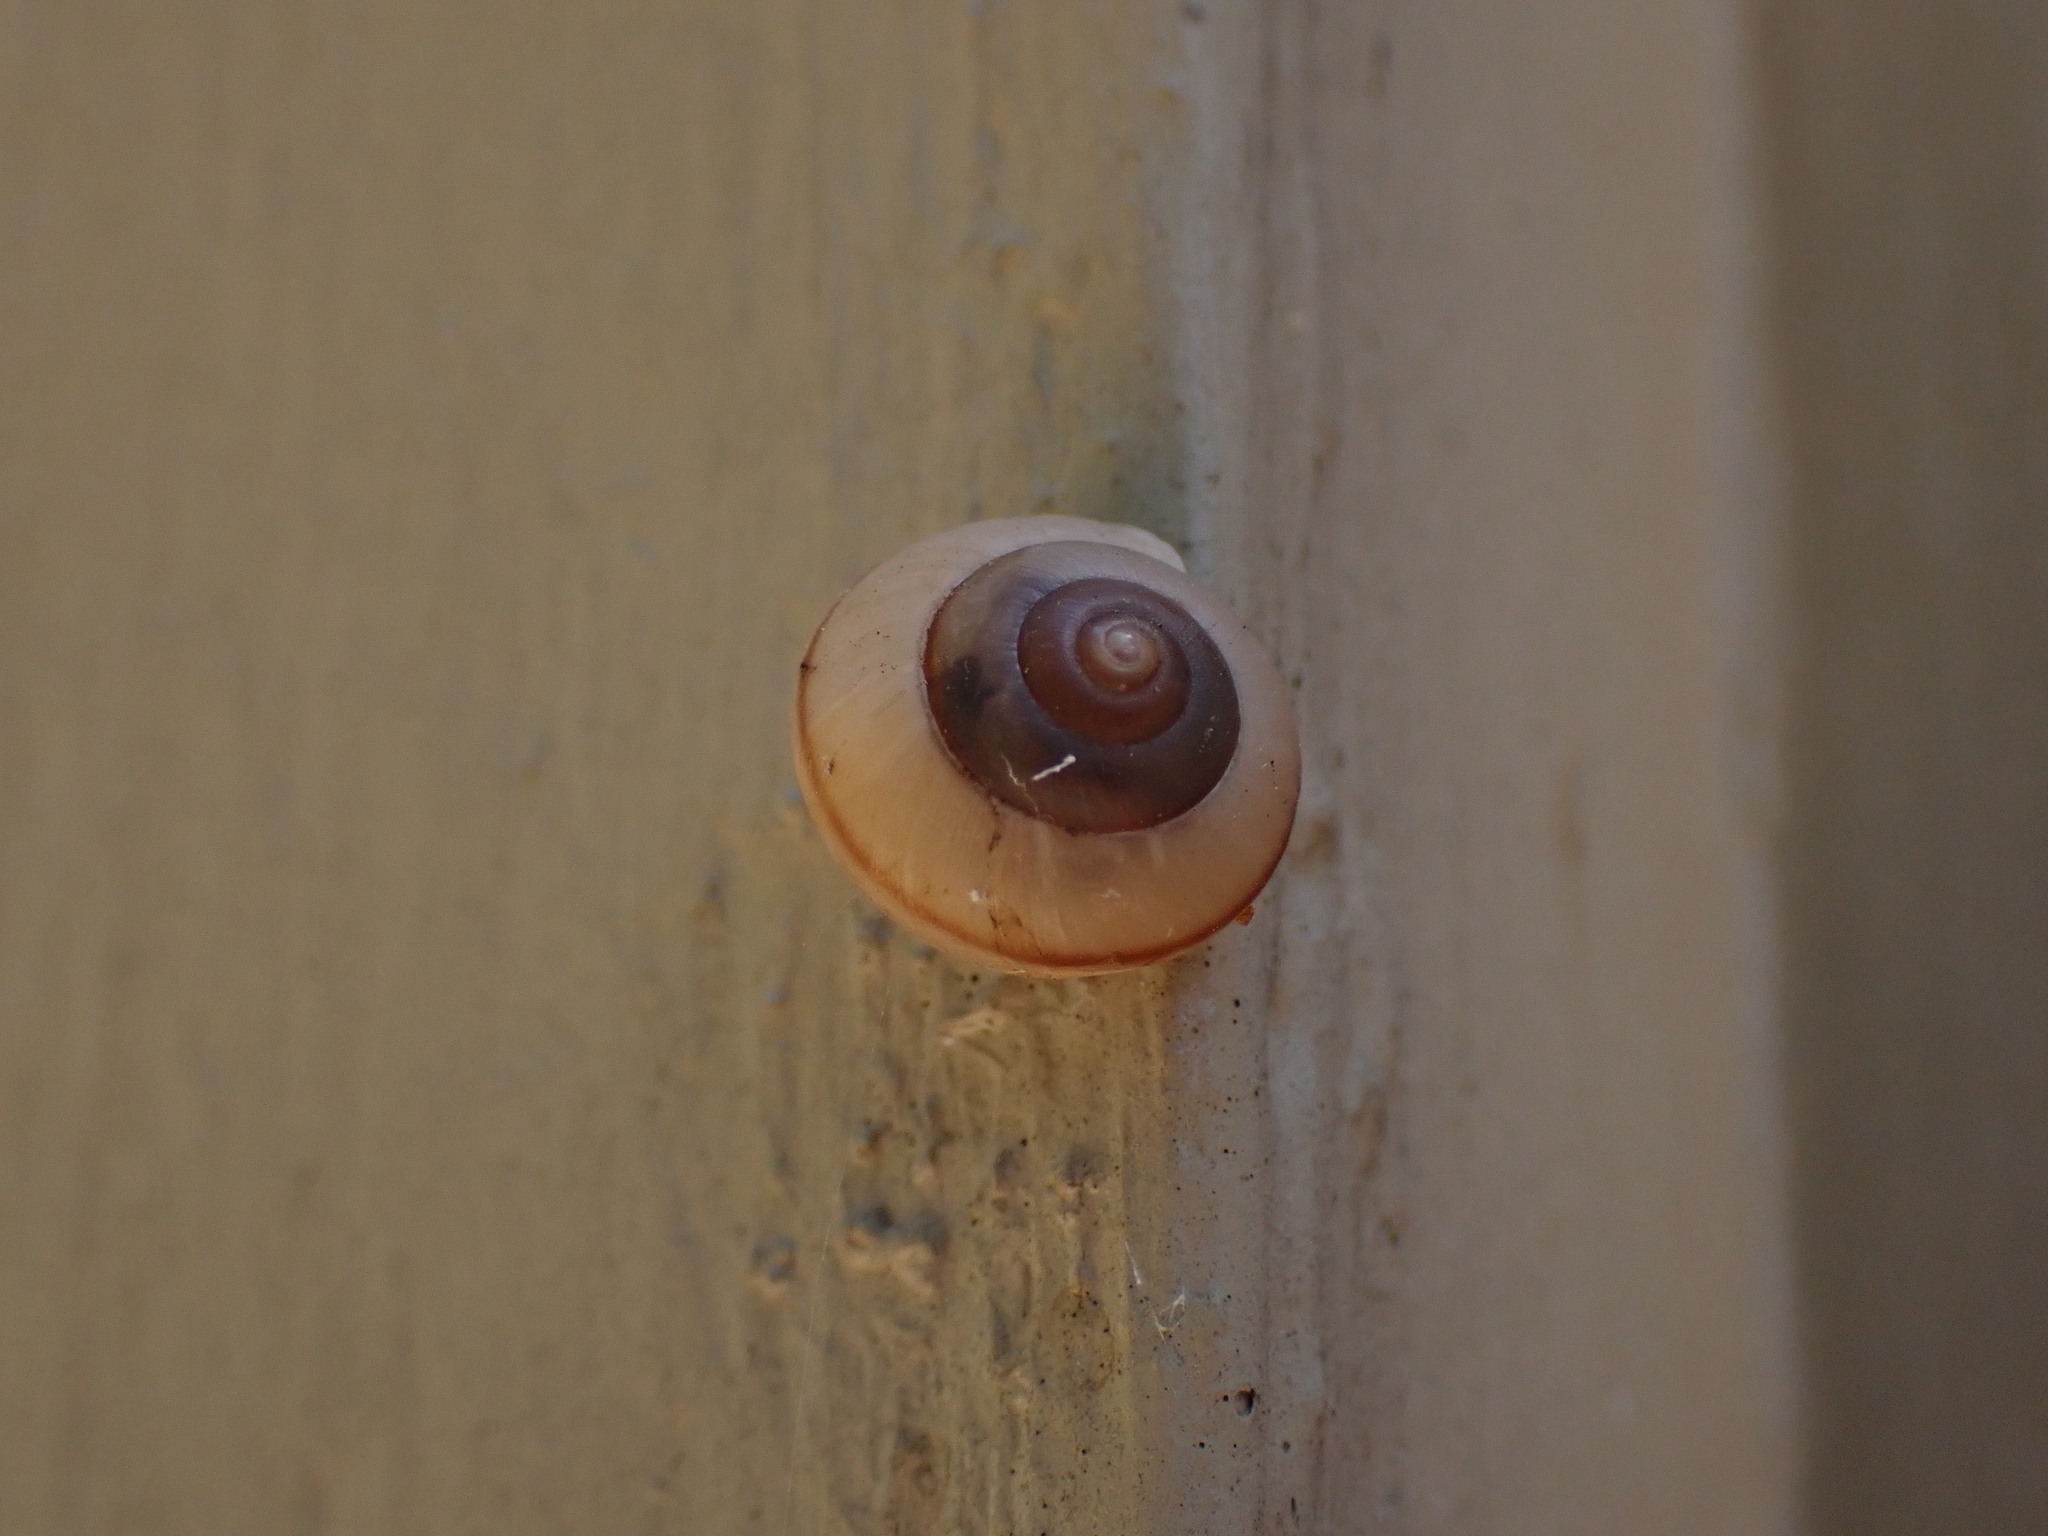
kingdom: Animalia
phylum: Mollusca
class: Gastropoda
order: Stylommatophora
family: Camaenidae
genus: Bradybaena
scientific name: Bradybaena similaris
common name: Asian trampsnail
